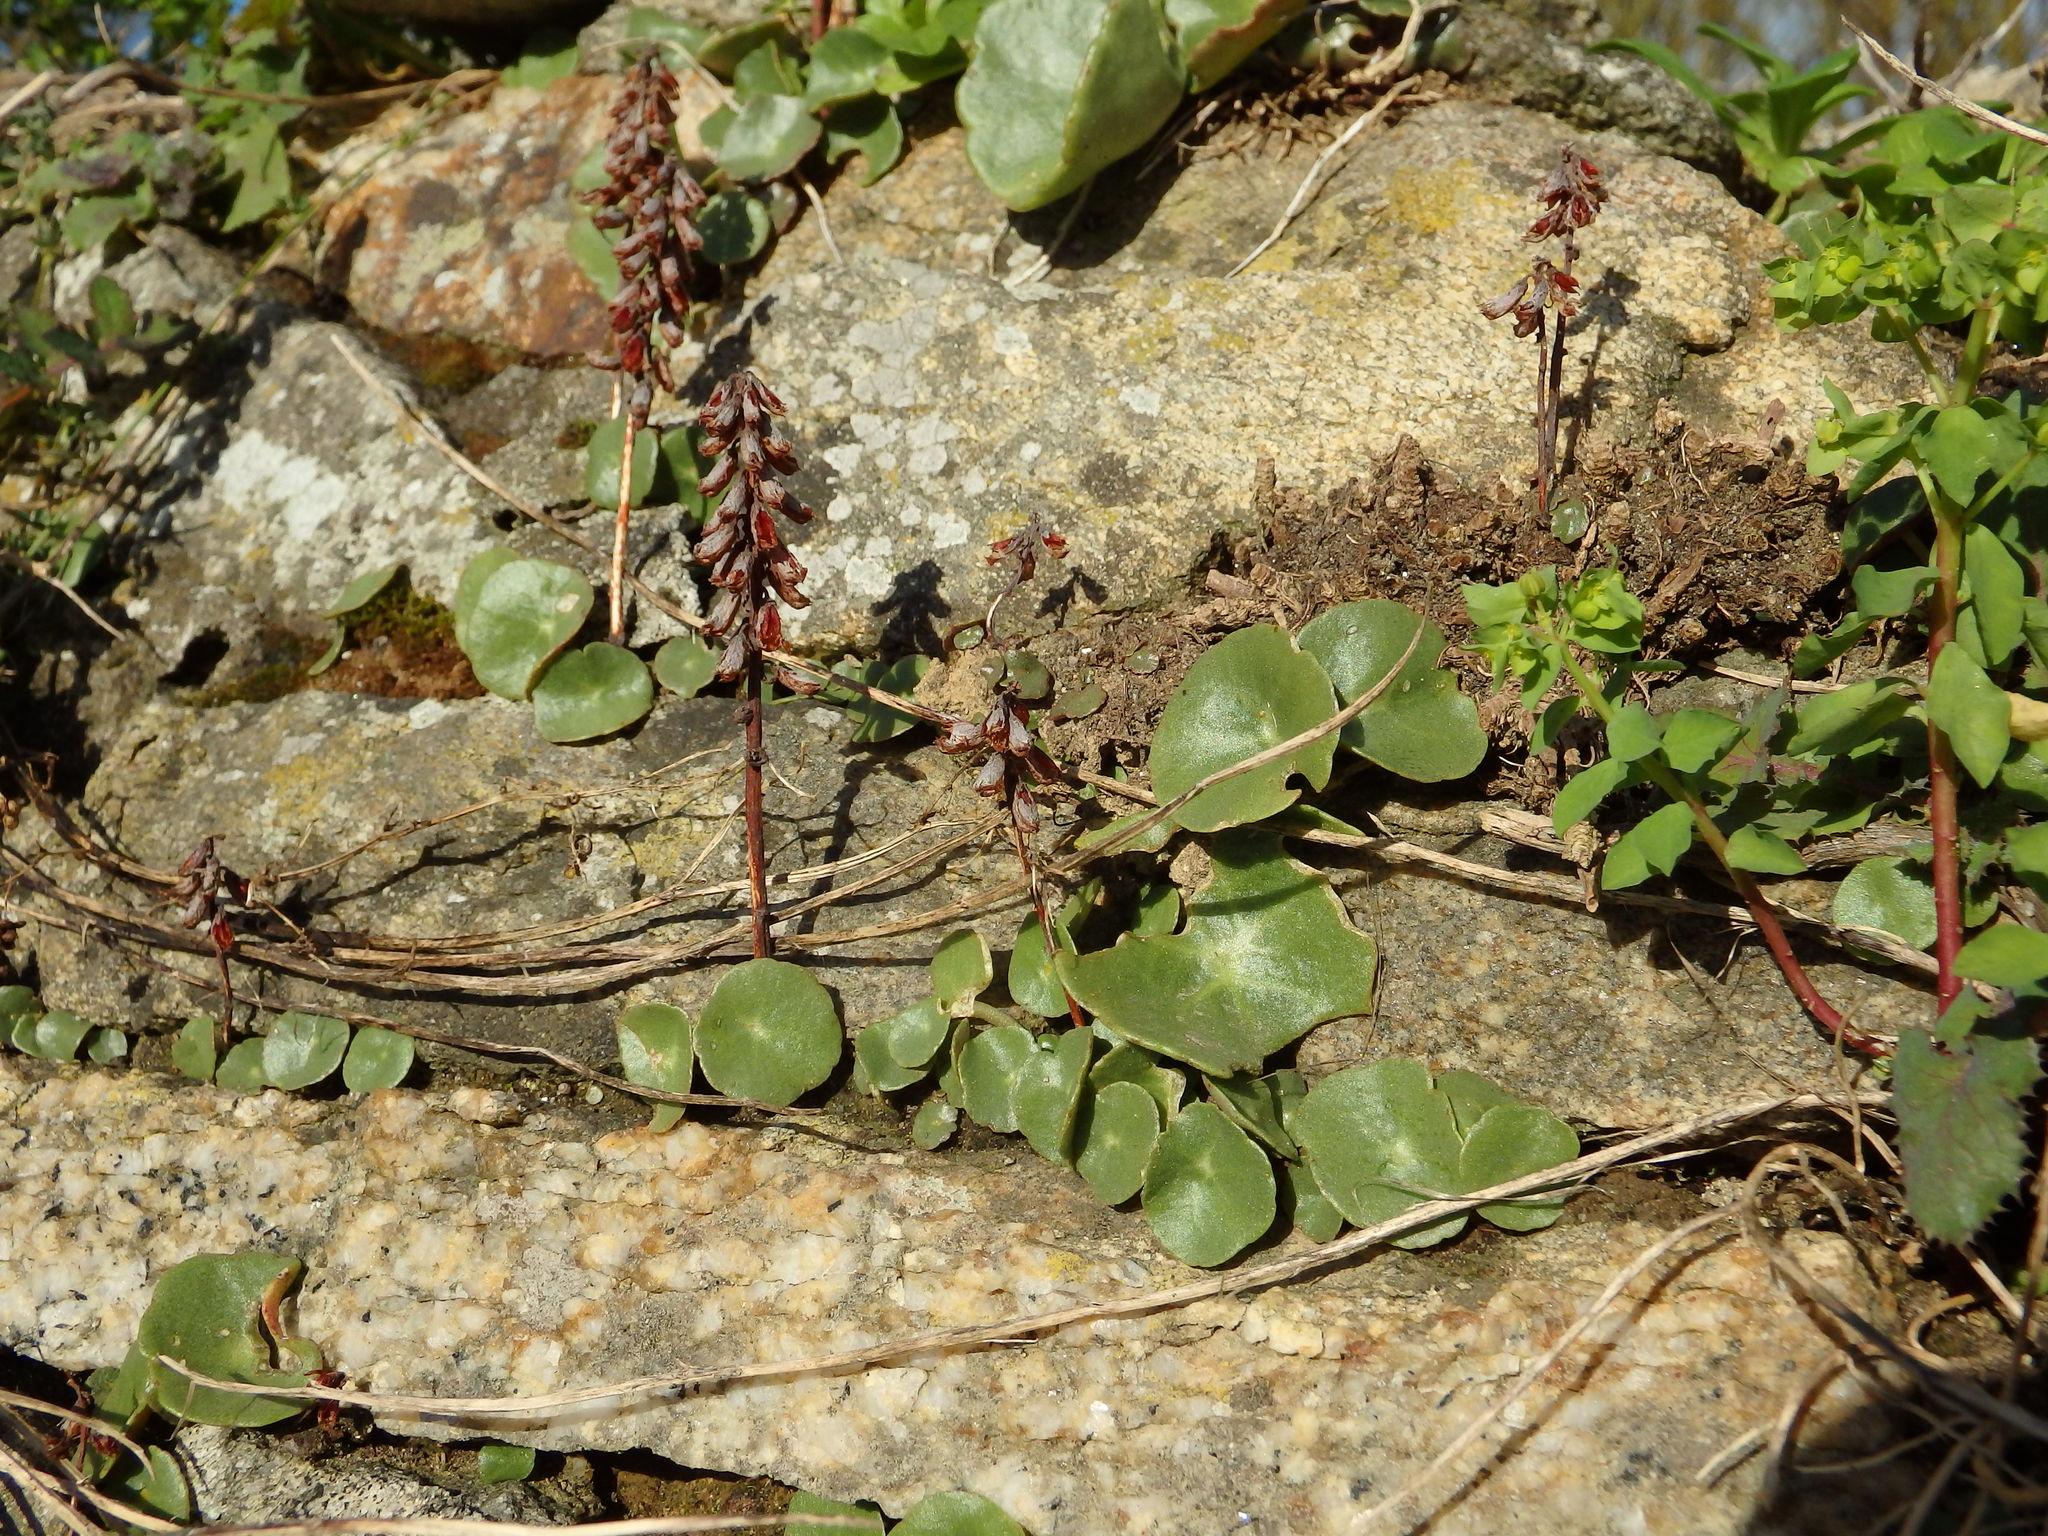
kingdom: Plantae
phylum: Tracheophyta
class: Magnoliopsida
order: Saxifragales
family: Crassulaceae
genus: Umbilicus
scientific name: Umbilicus rupestris
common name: Navelwort
